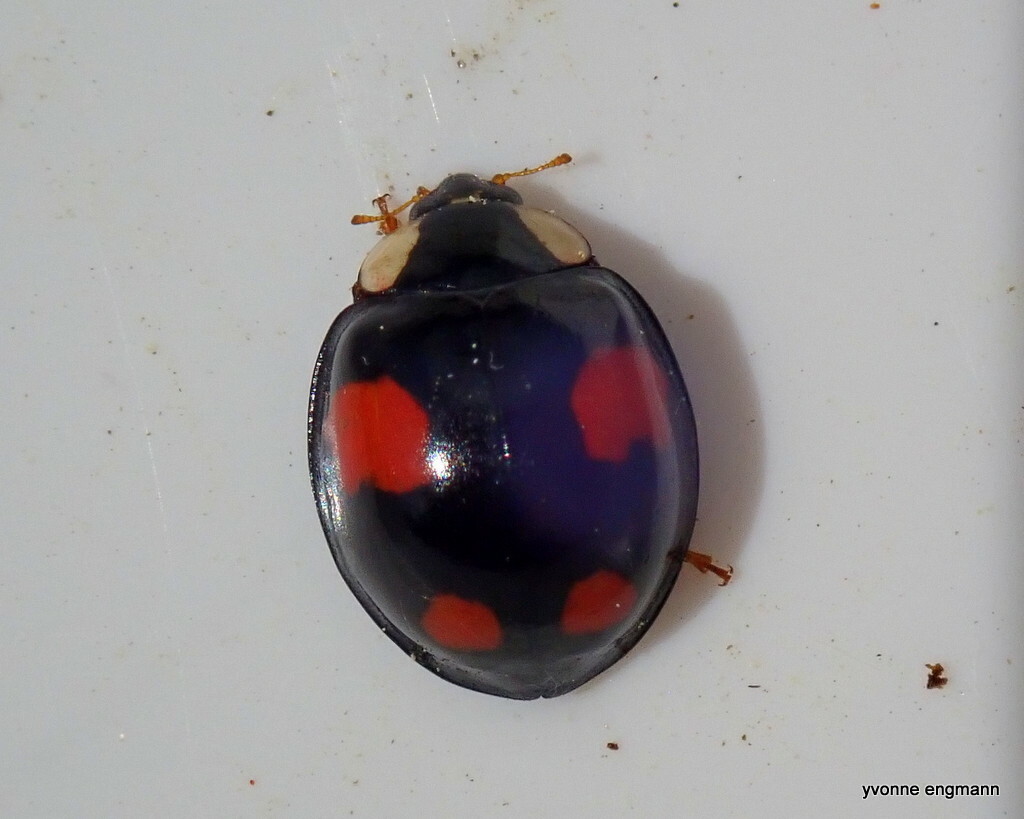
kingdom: Animalia
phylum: Arthropoda
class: Insecta
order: Coleoptera
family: Coccinellidae
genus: Harmonia
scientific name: Harmonia axyridis
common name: Harlequin ladybird
